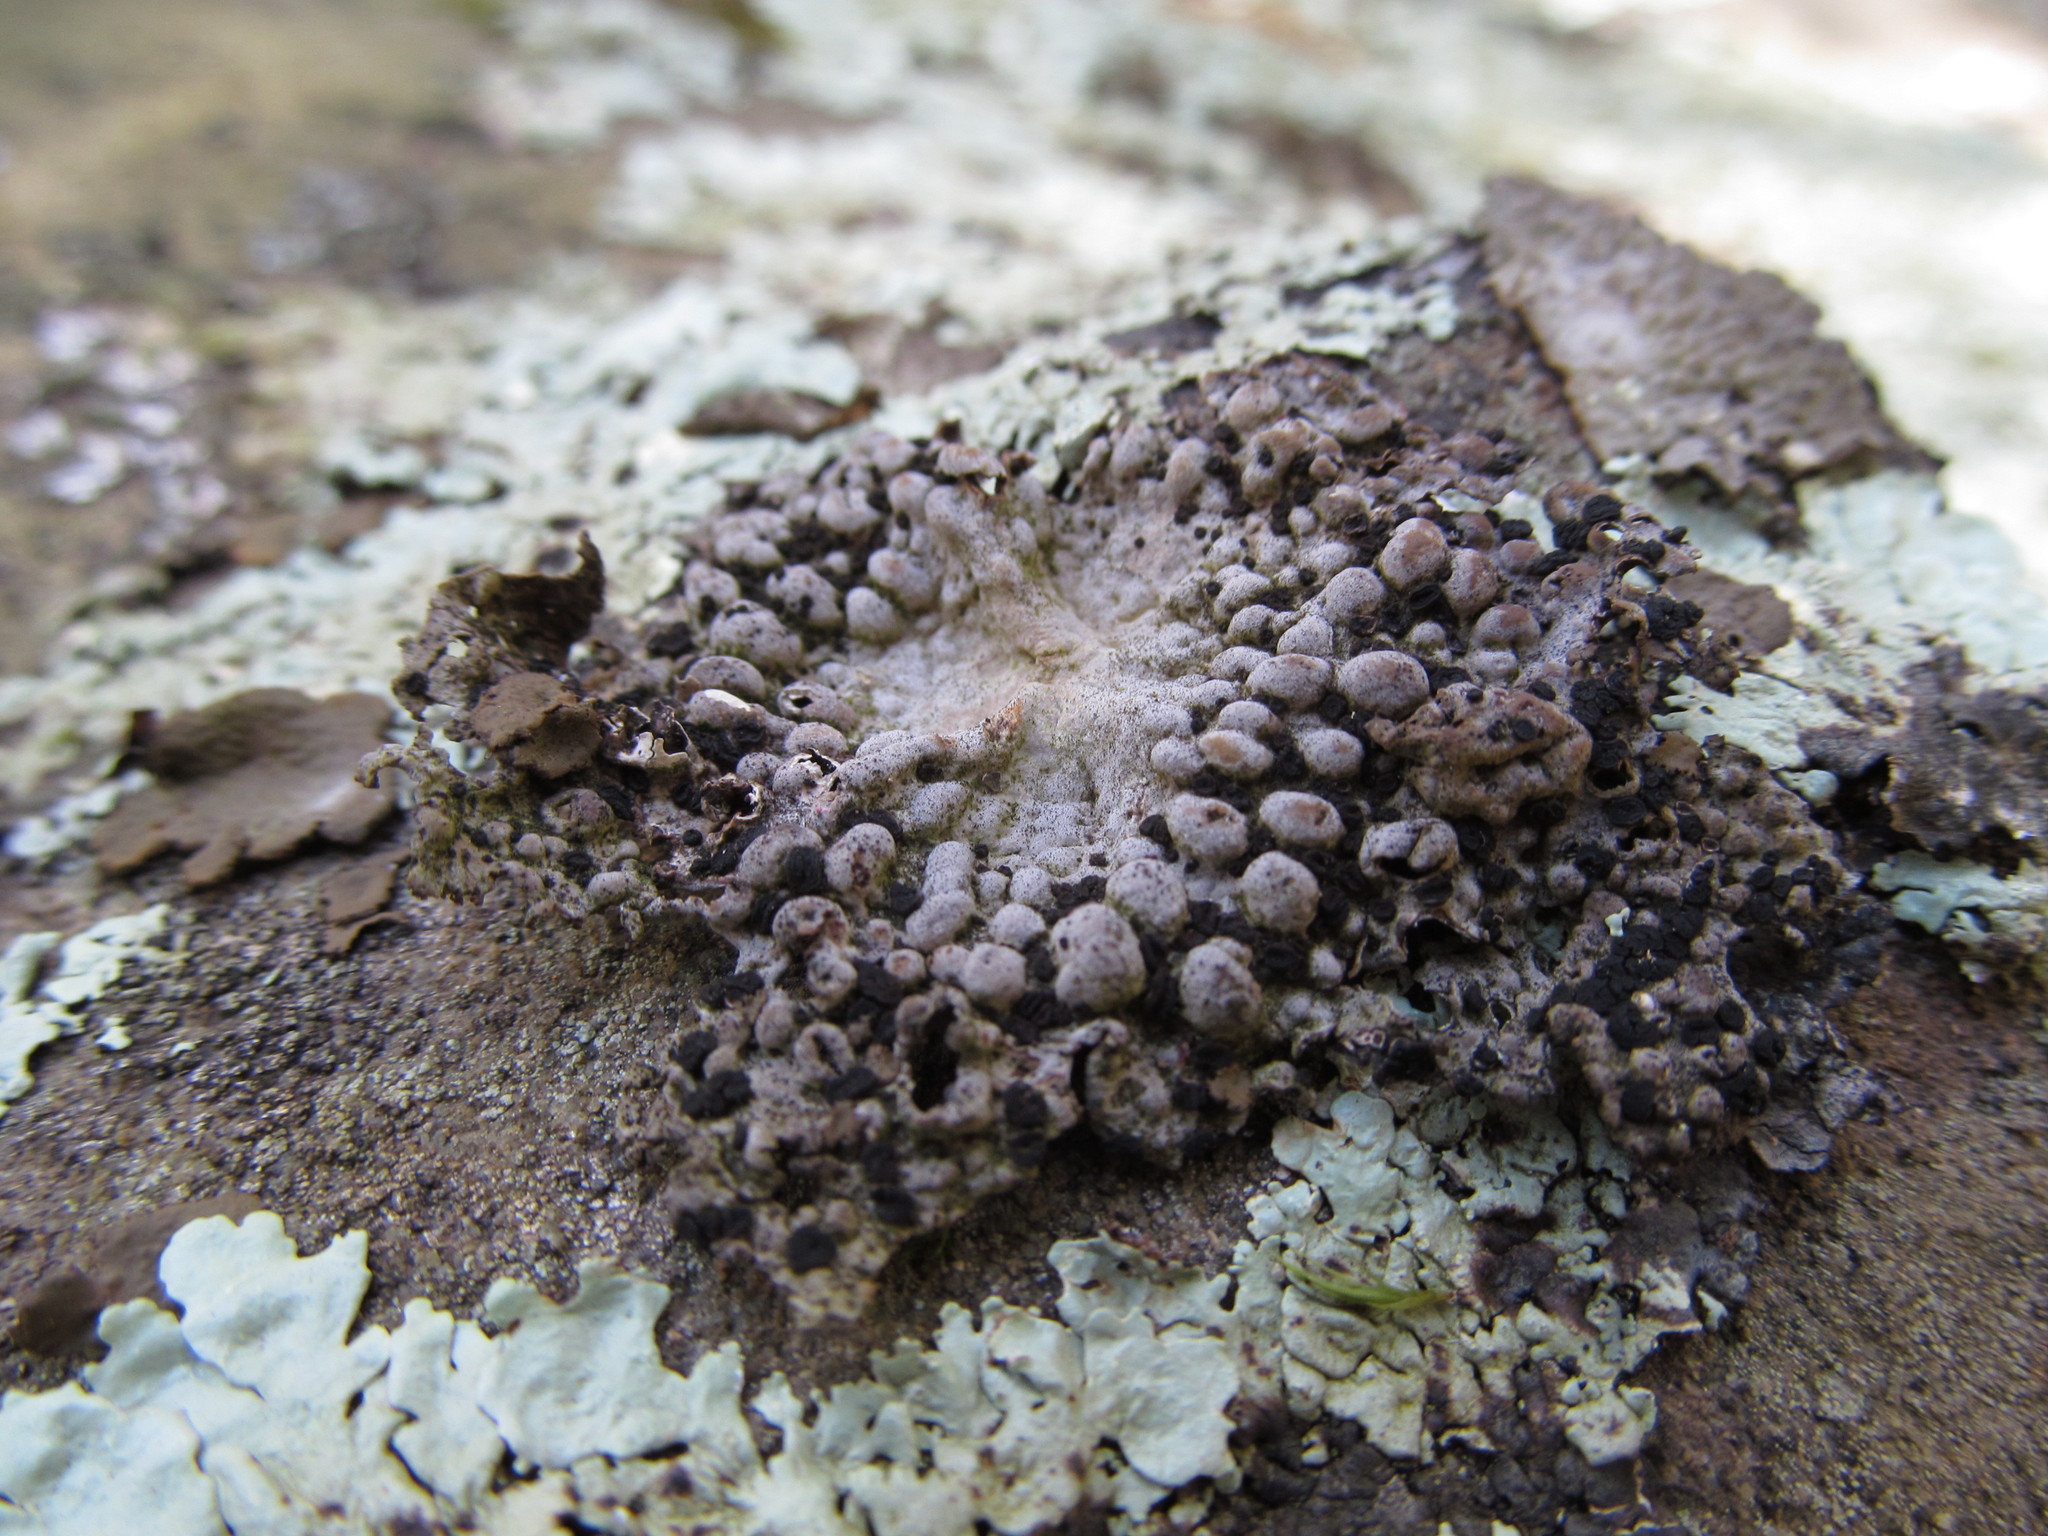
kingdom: Fungi
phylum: Ascomycota
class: Lecanoromycetes
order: Umbilicariales
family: Umbilicariaceae
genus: Lasallia
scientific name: Lasallia papulosa
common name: Common toadskin lichen
